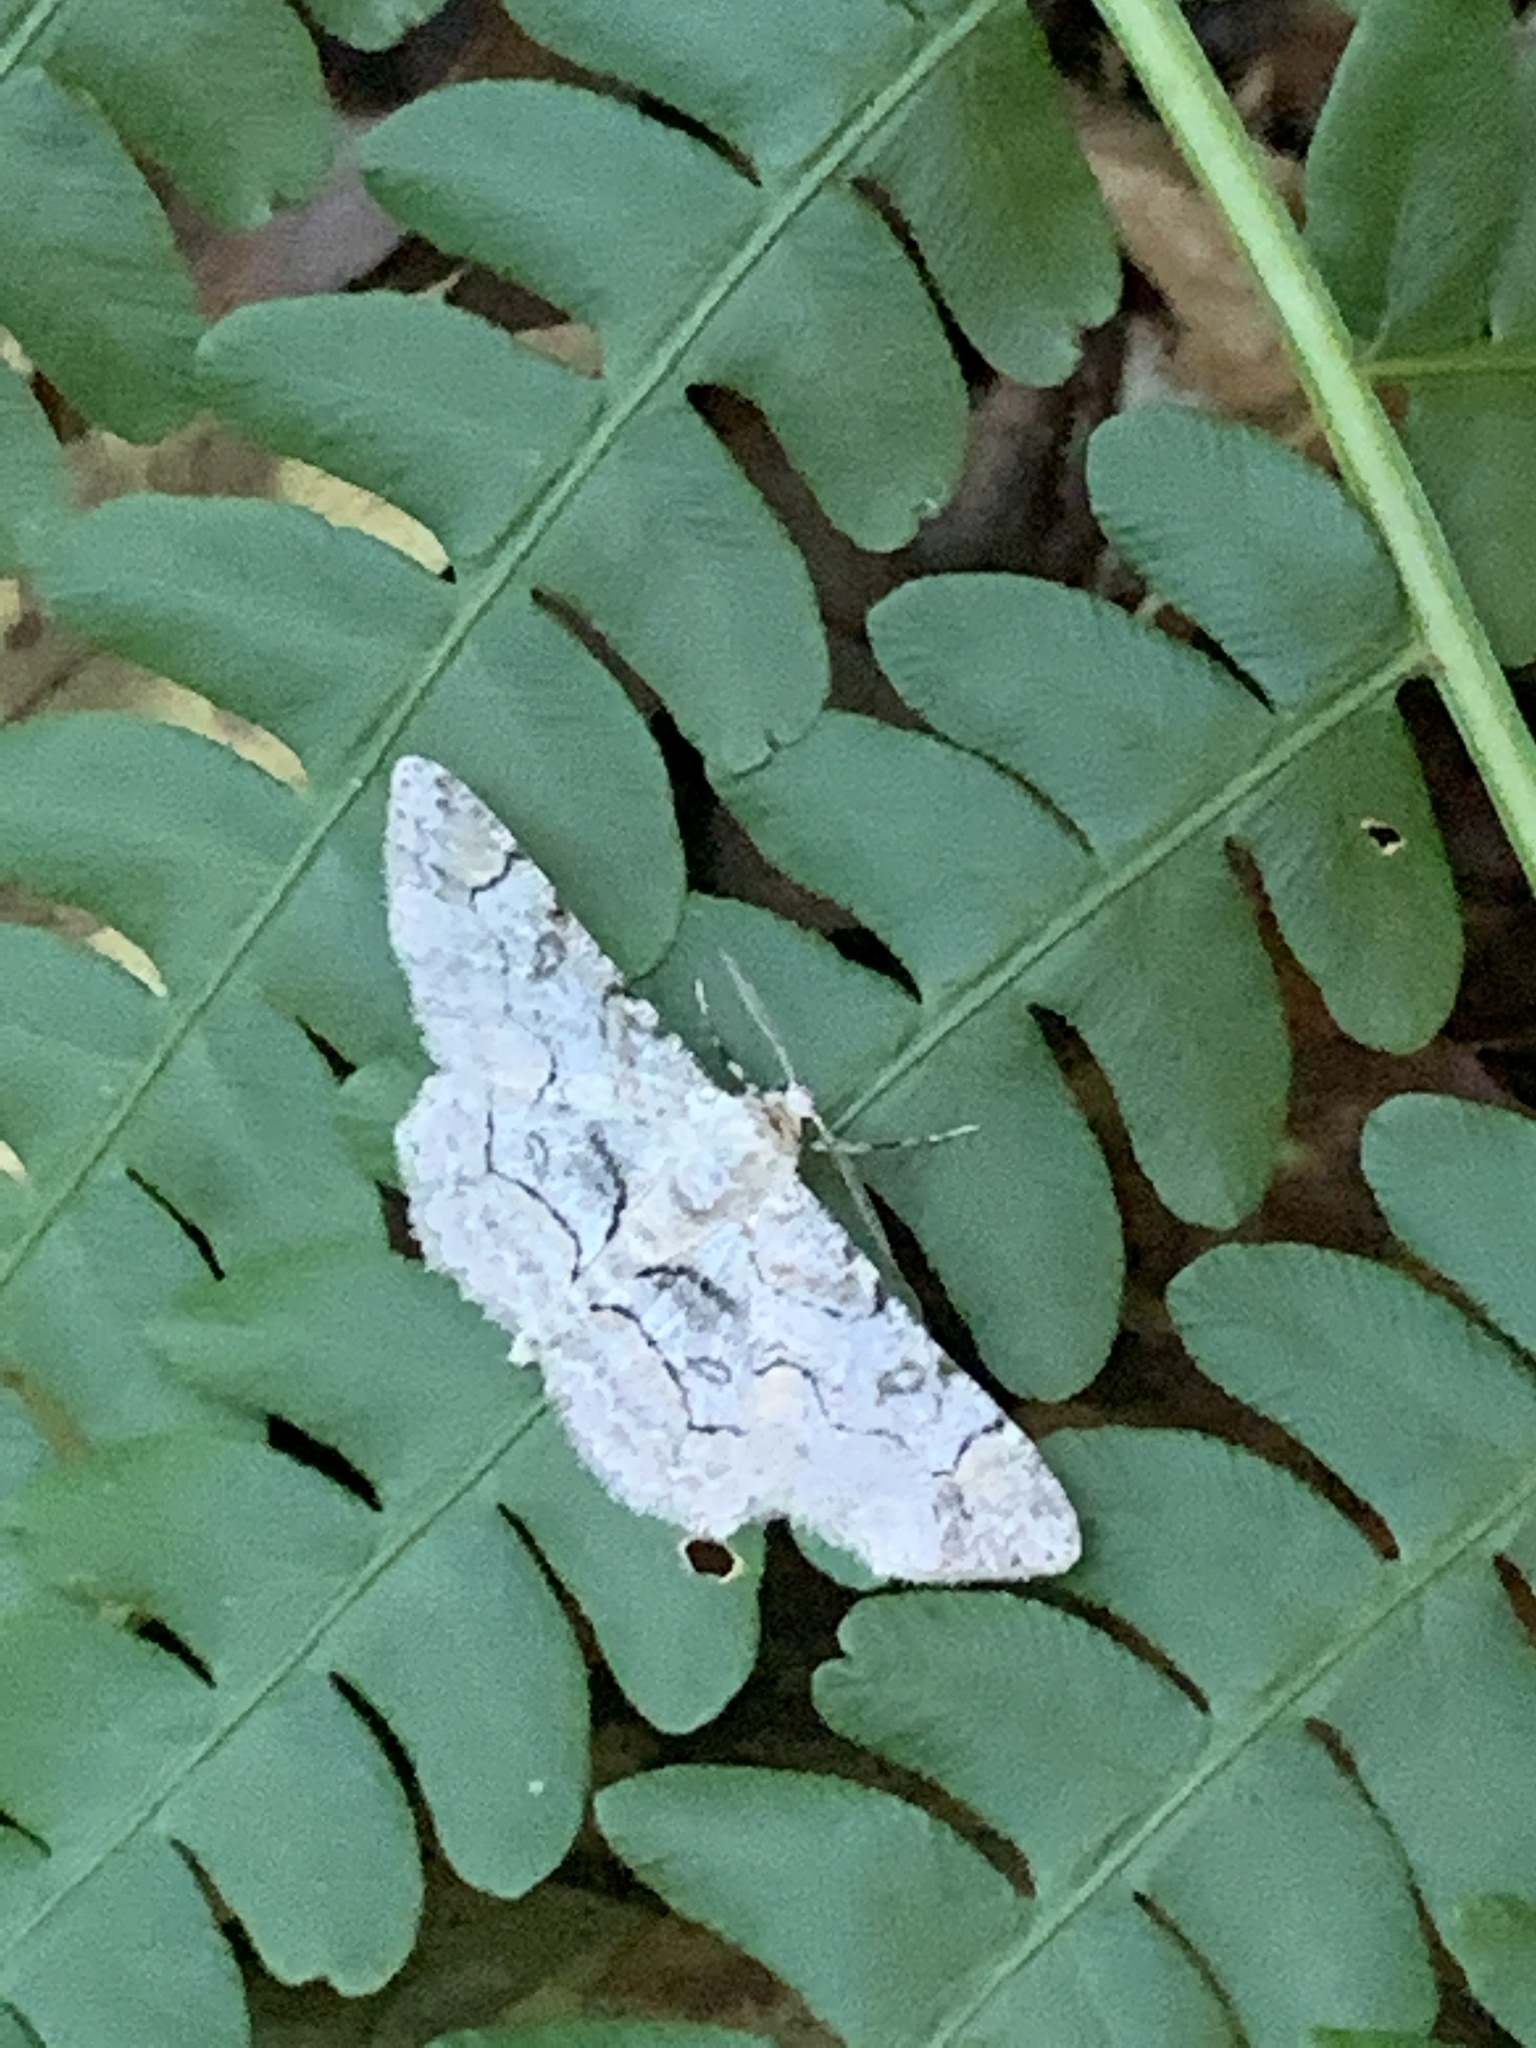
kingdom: Animalia
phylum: Arthropoda
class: Insecta
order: Lepidoptera
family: Geometridae
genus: Iridopsis
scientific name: Iridopsis larvaria
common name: Bent-line gray
